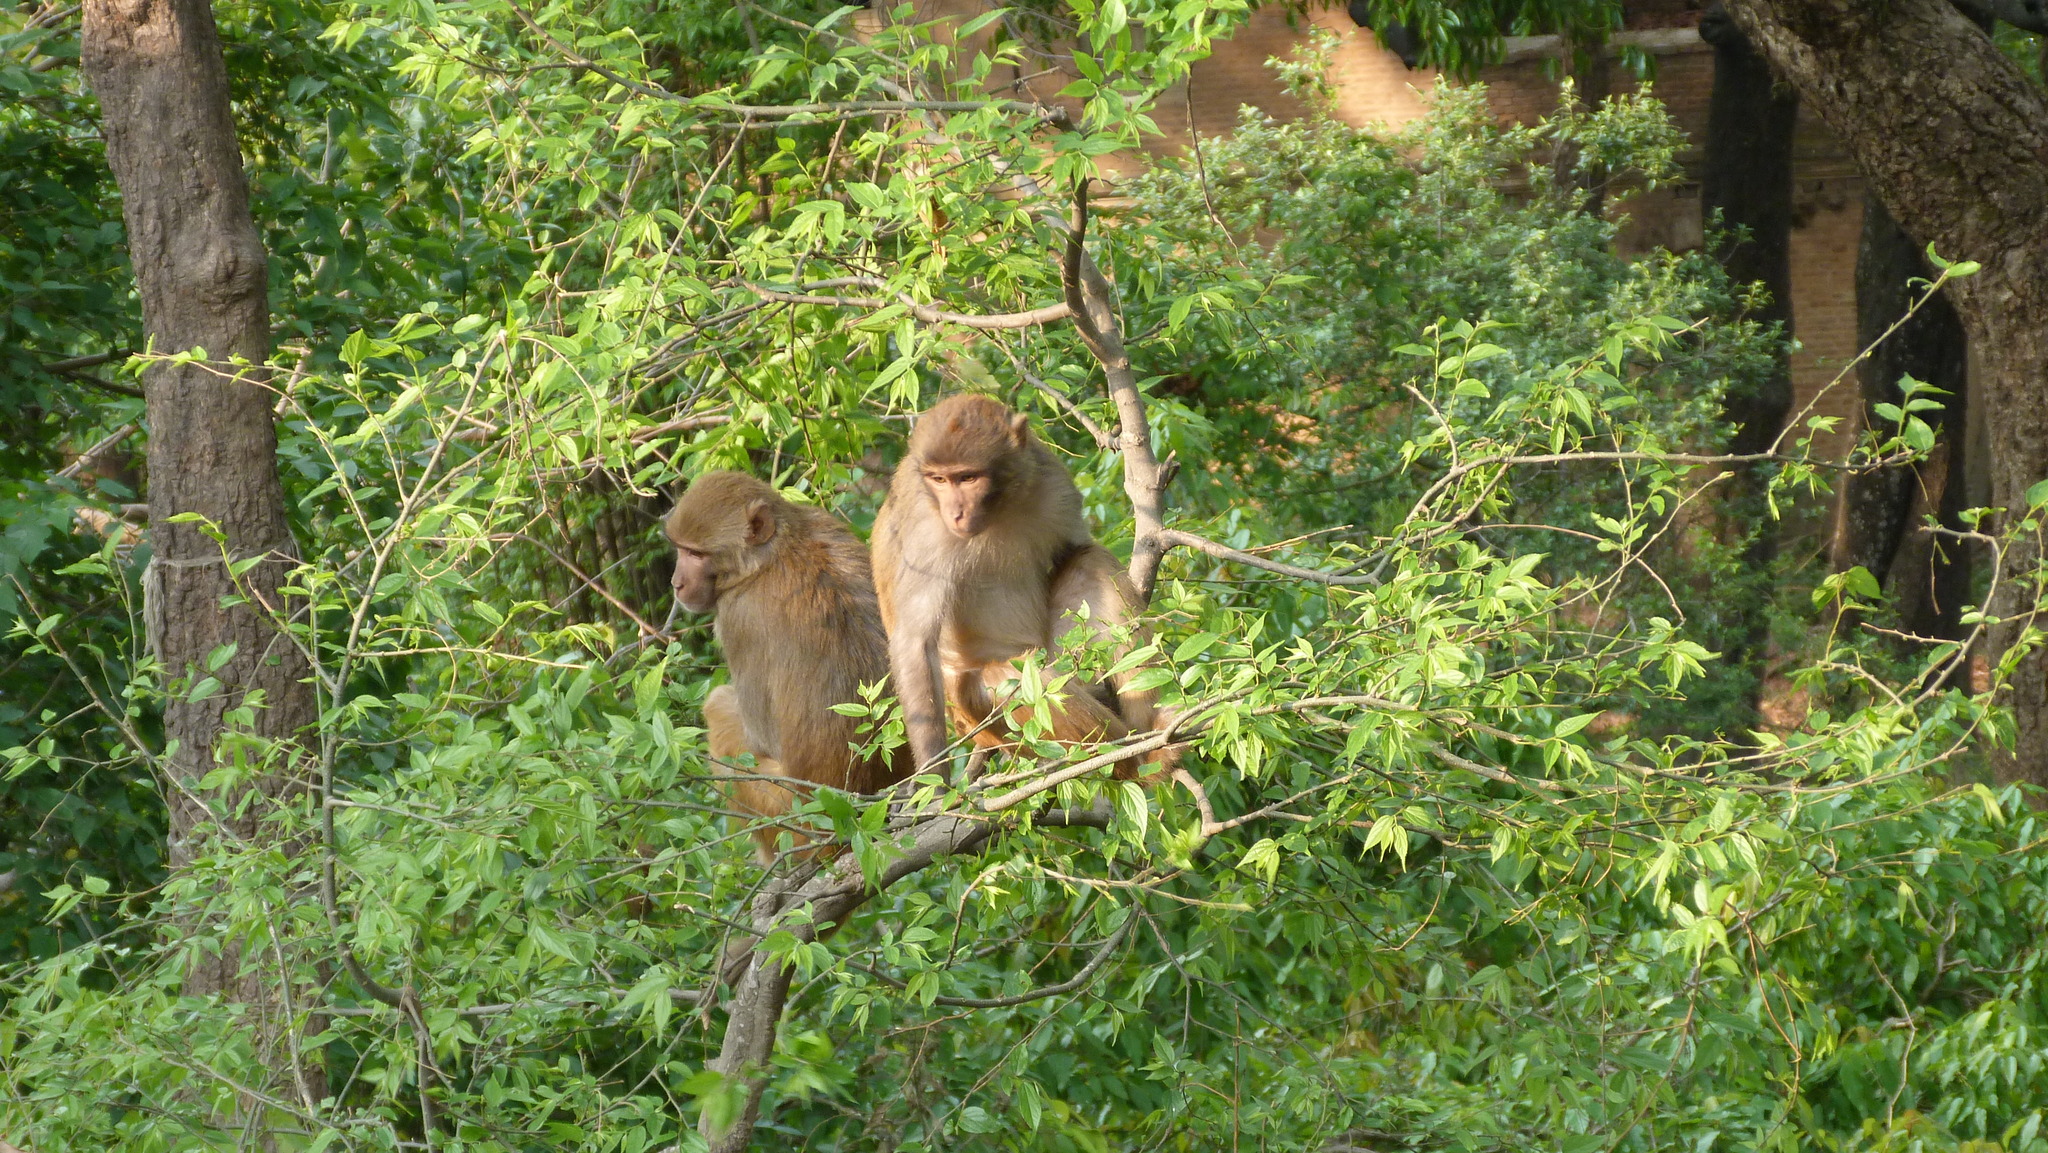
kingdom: Animalia
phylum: Chordata
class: Mammalia
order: Primates
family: Cercopithecidae
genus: Macaca
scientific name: Macaca mulatta
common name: Rhesus monkey
